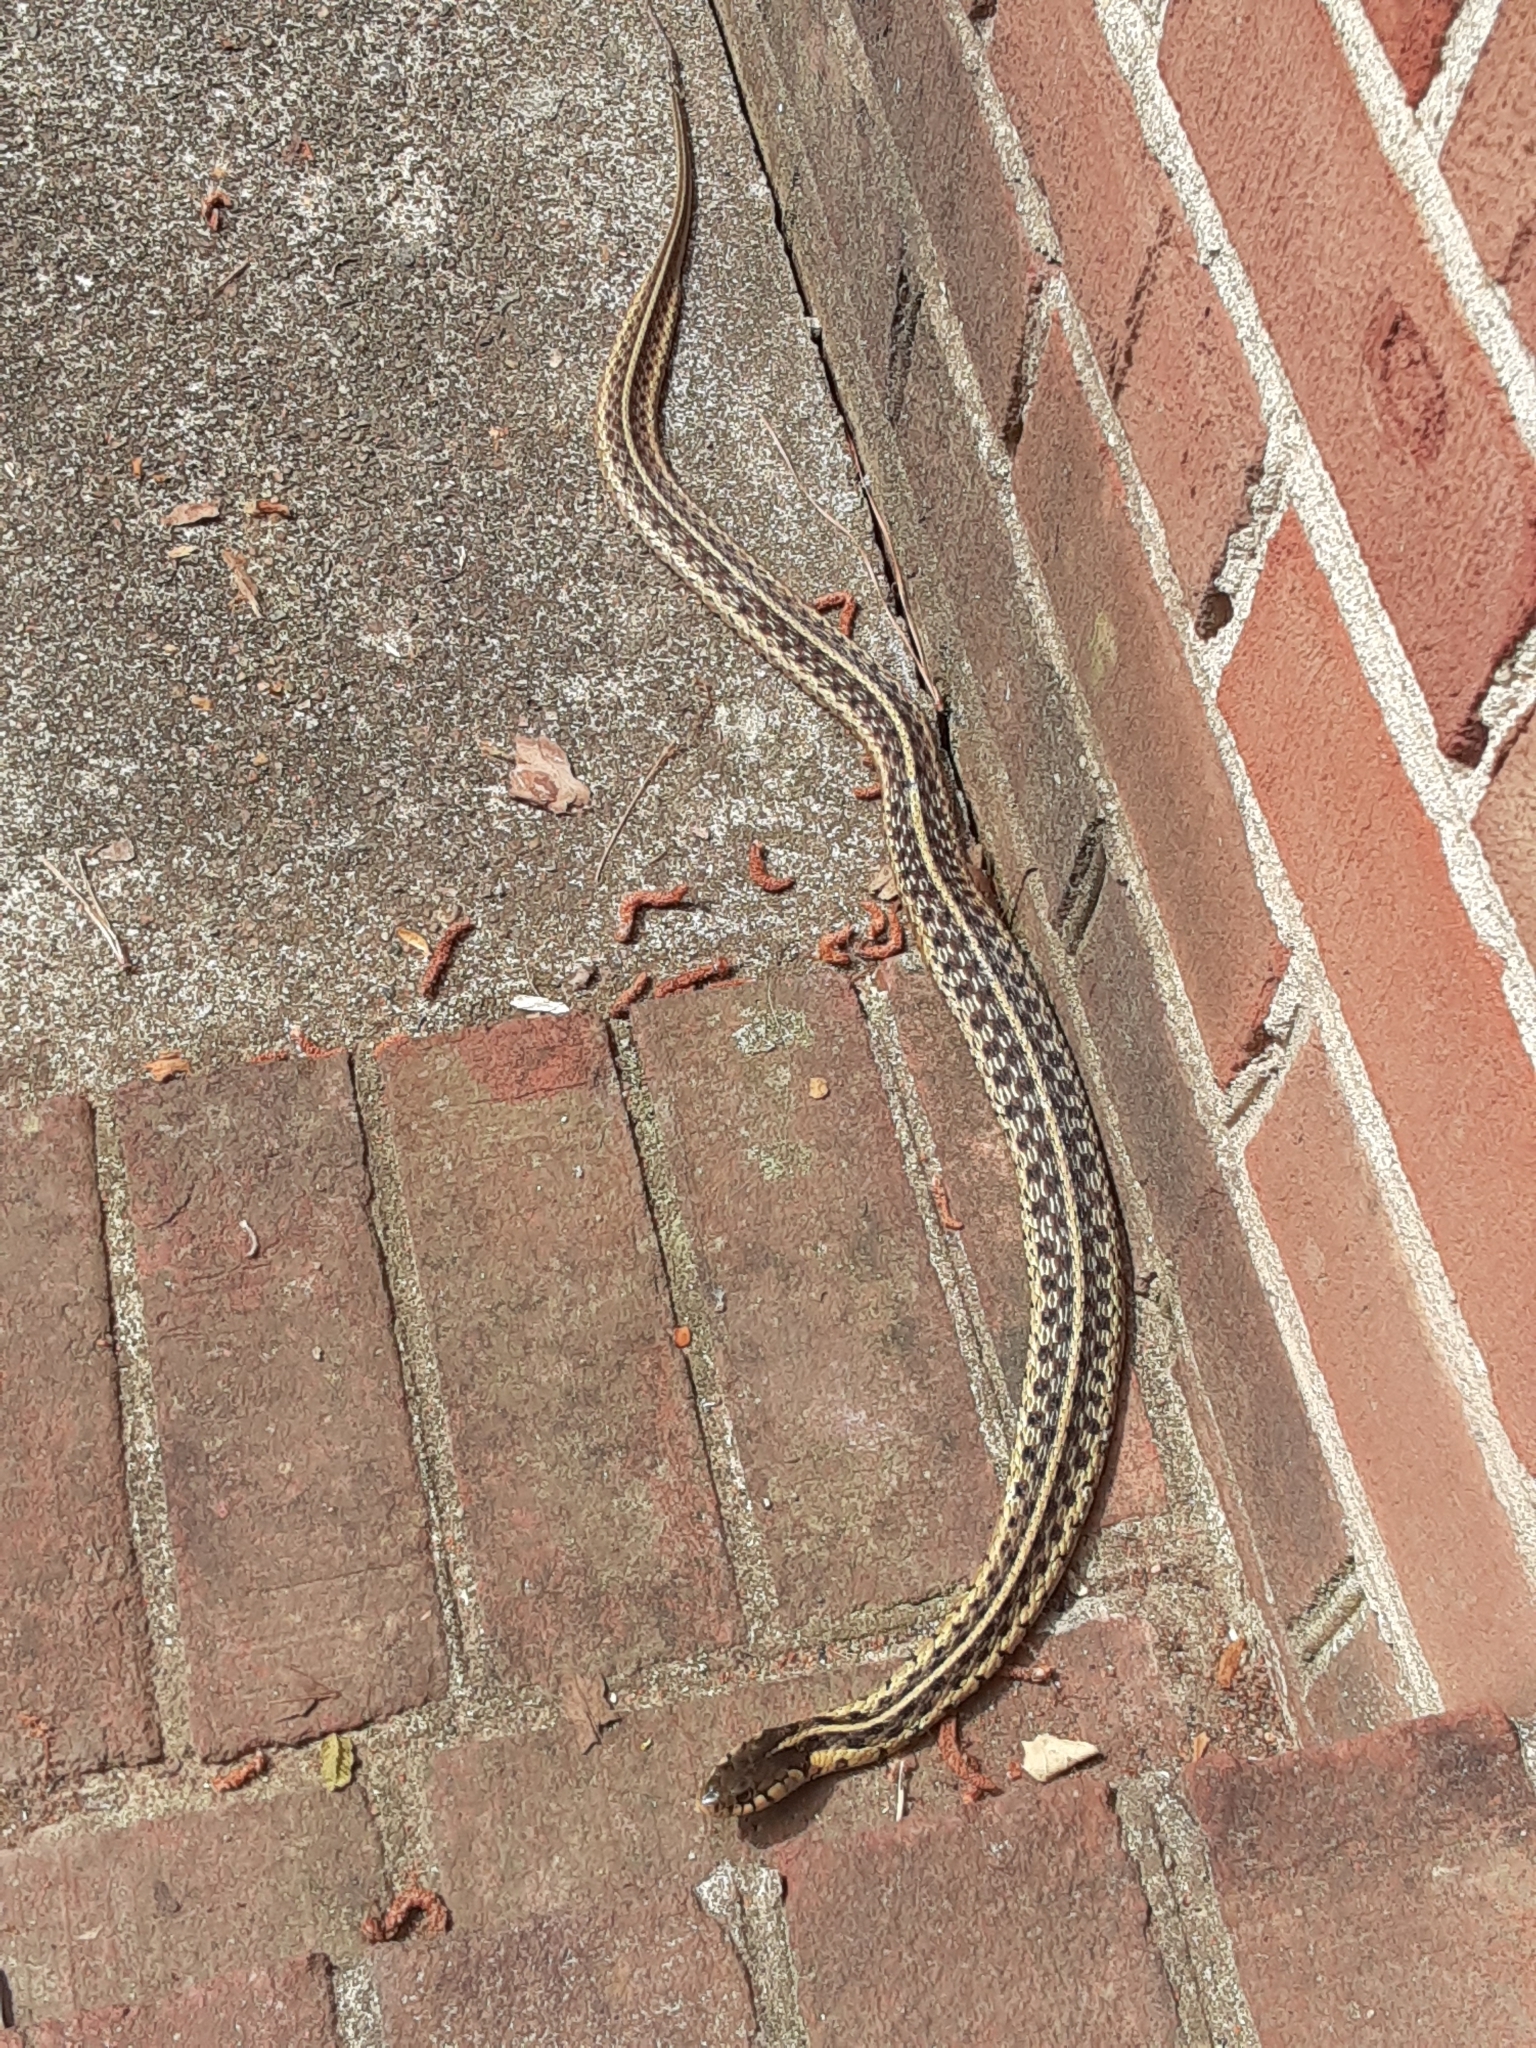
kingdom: Animalia
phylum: Chordata
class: Squamata
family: Colubridae
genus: Thamnophis
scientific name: Thamnophis sirtalis
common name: Common garter snake
